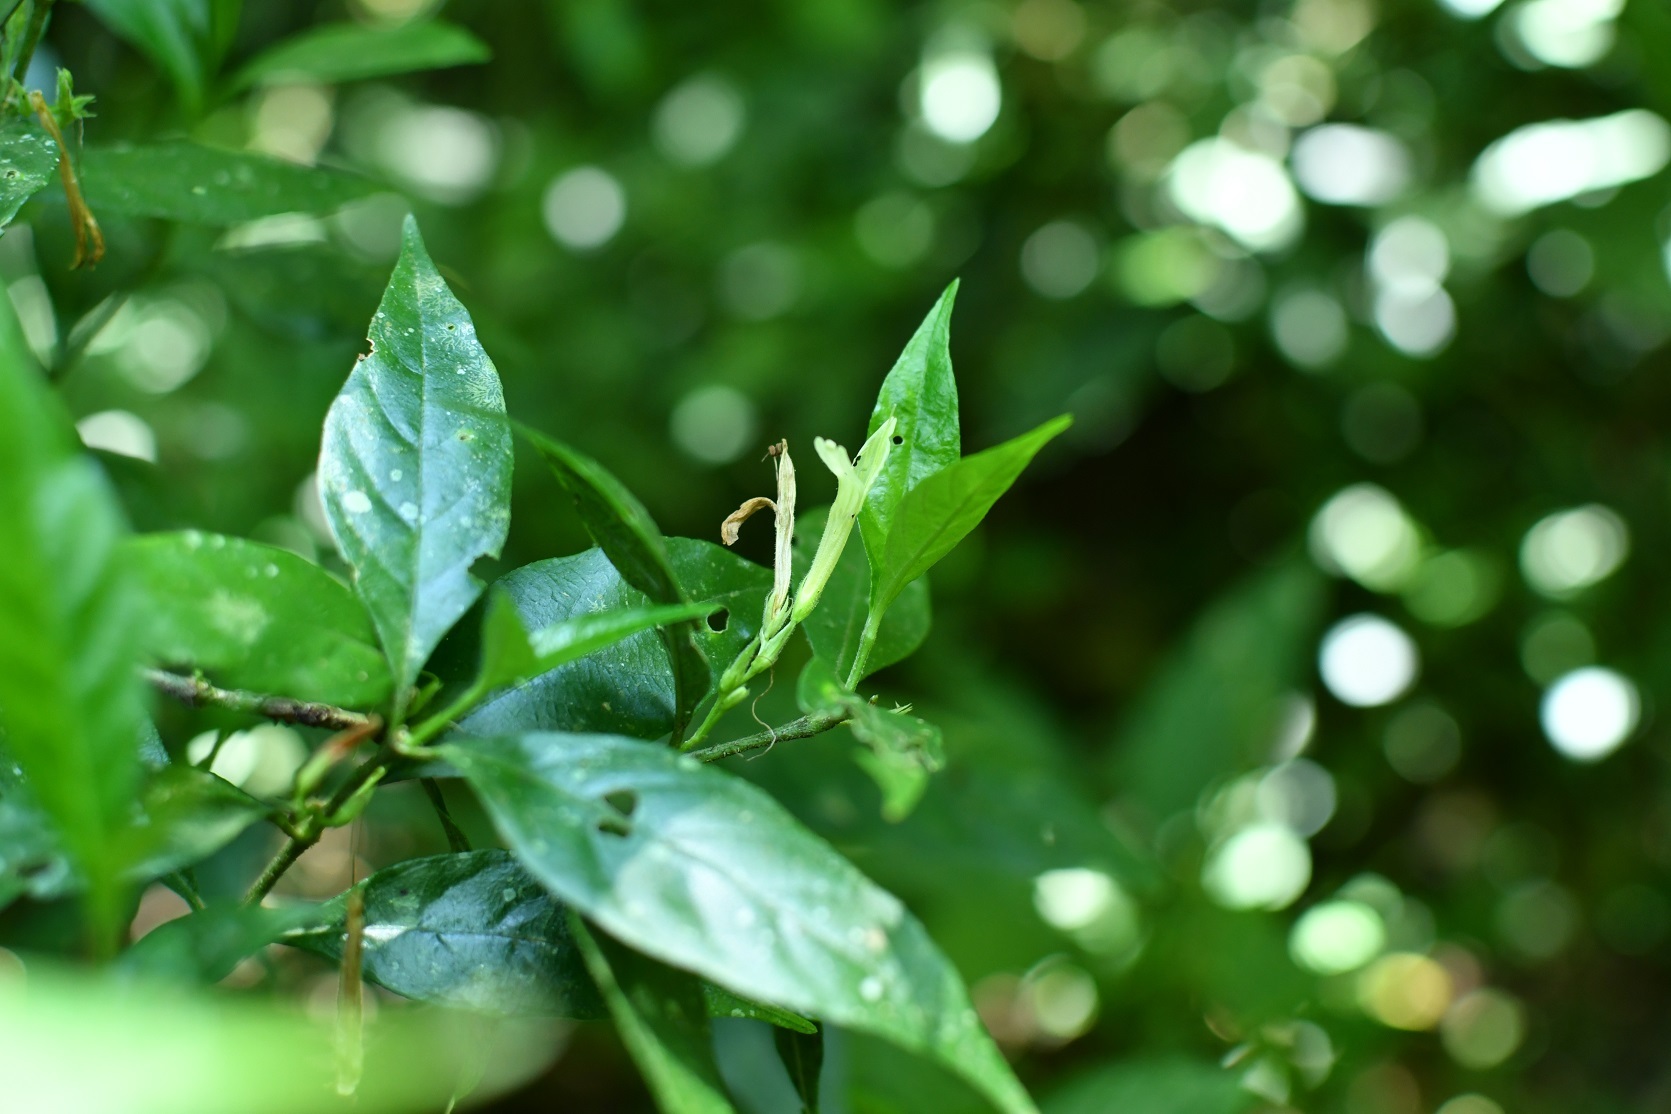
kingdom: Plantae
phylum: Tracheophyta
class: Magnoliopsida
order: Lamiales
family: Acanthaceae
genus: Justicia
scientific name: Justicia eburnea
